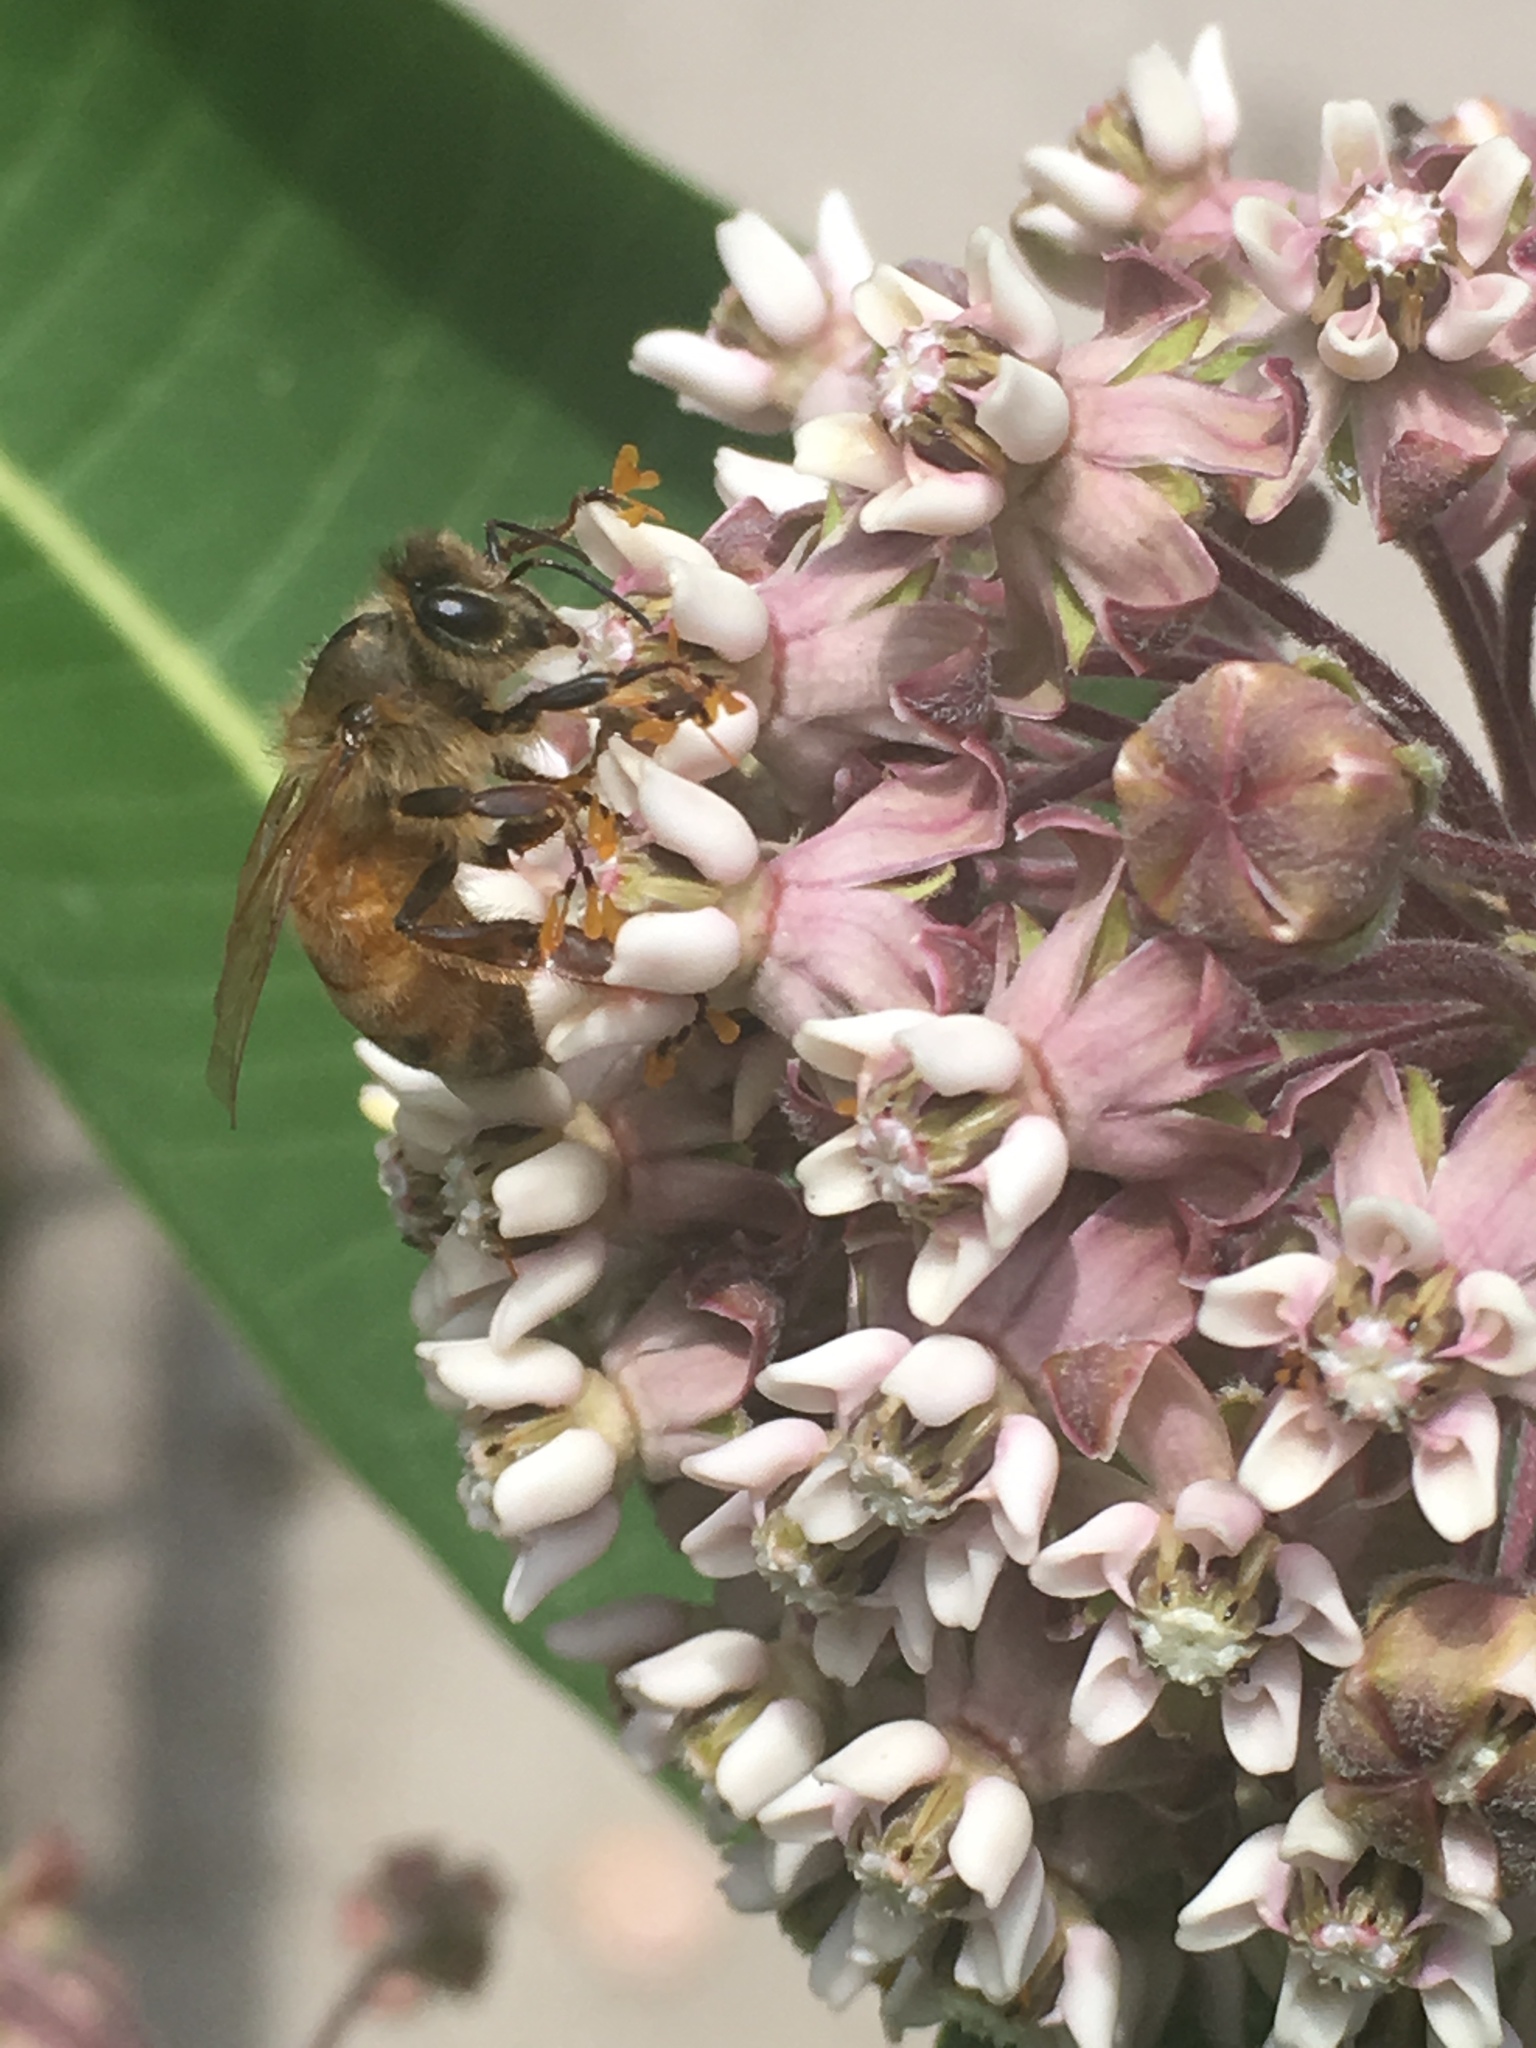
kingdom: Animalia
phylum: Arthropoda
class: Insecta
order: Hymenoptera
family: Apidae
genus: Apis
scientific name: Apis mellifera
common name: Honey bee
